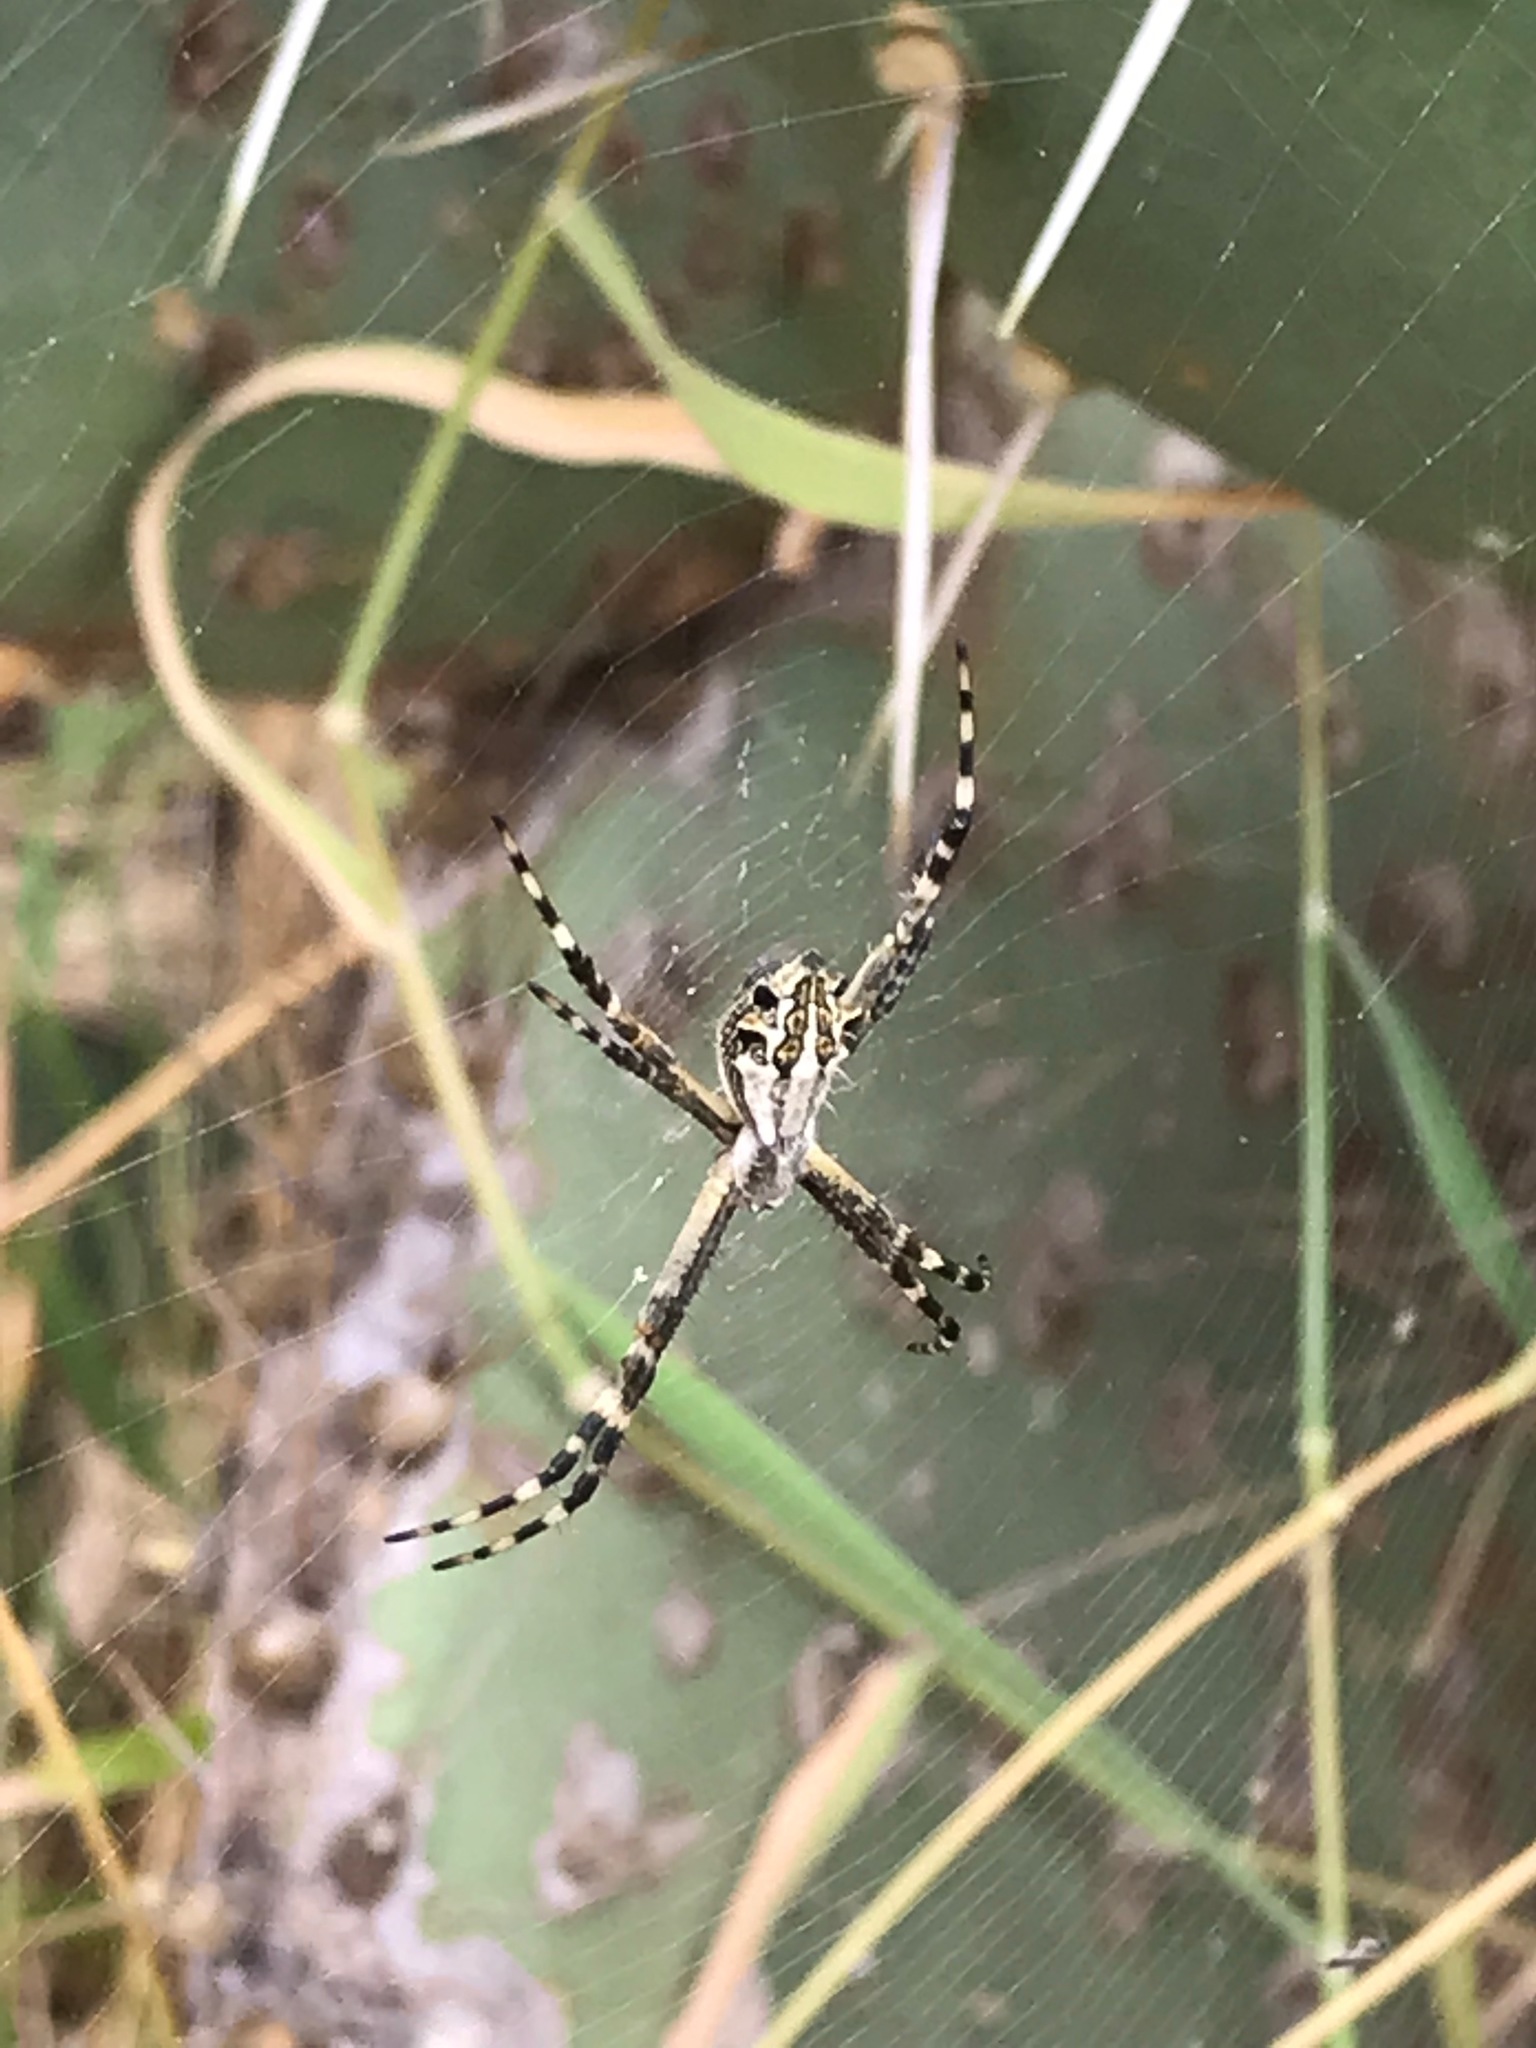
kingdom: Animalia
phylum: Arthropoda
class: Arachnida
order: Araneae
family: Araneidae
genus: Argiope
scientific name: Argiope argentata
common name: Orb weavers
